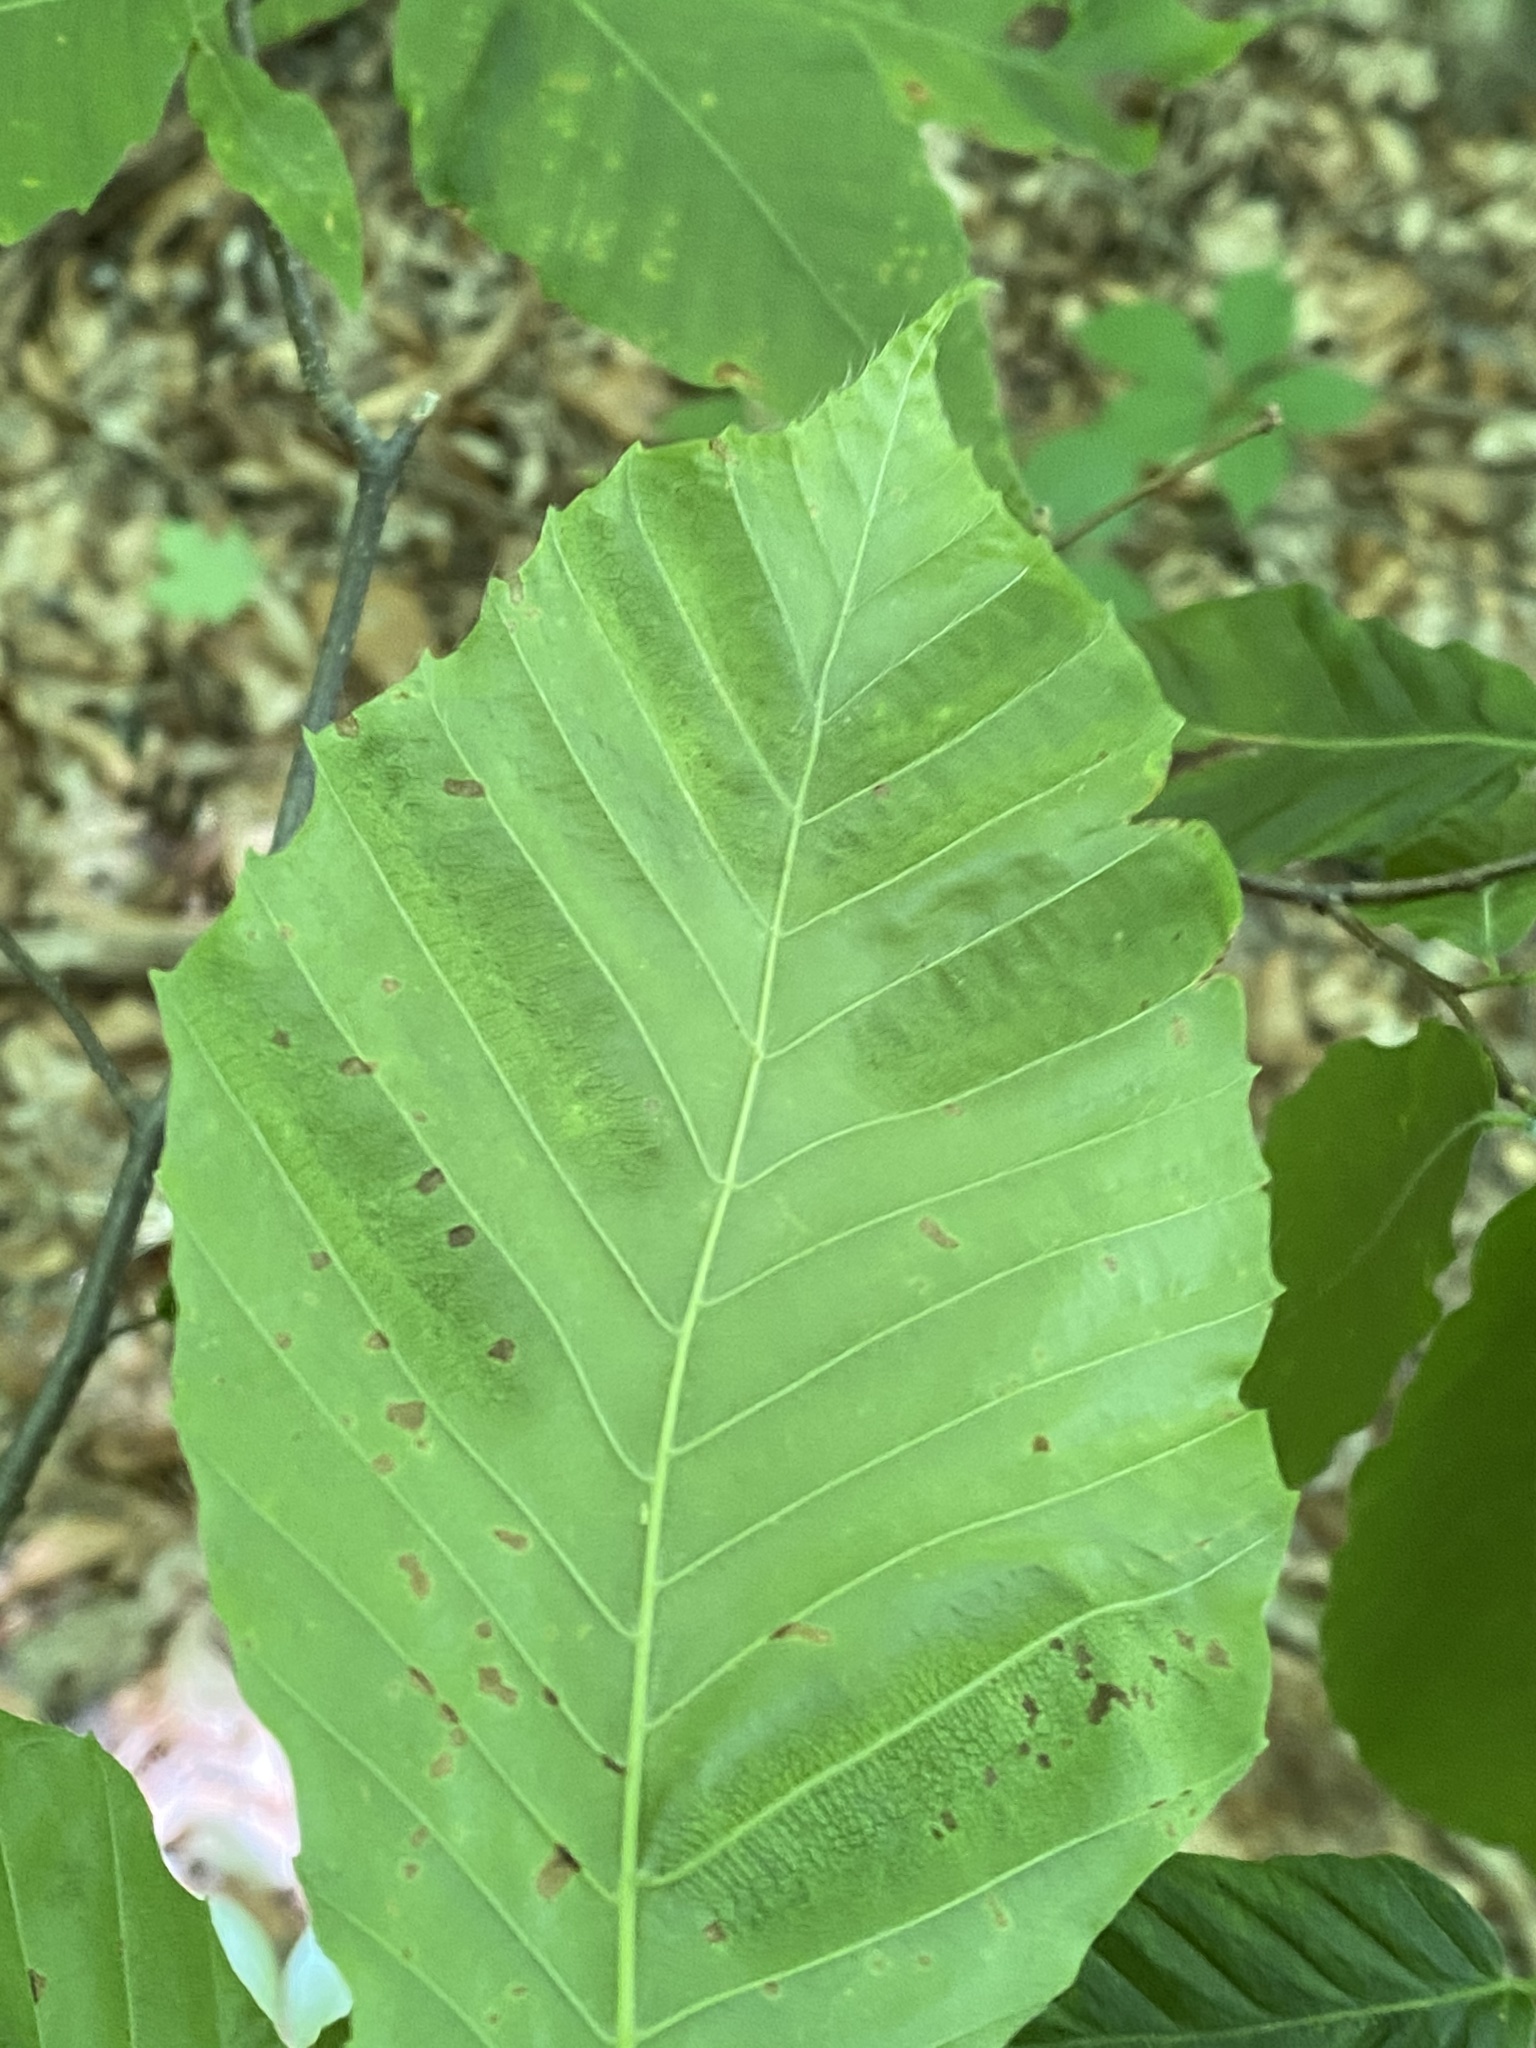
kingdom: Animalia
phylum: Nematoda
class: Chromadorea
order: Rhabditida
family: Anguinidae
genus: Litylenchus
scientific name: Litylenchus crenatae
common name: Beech leaf disease
